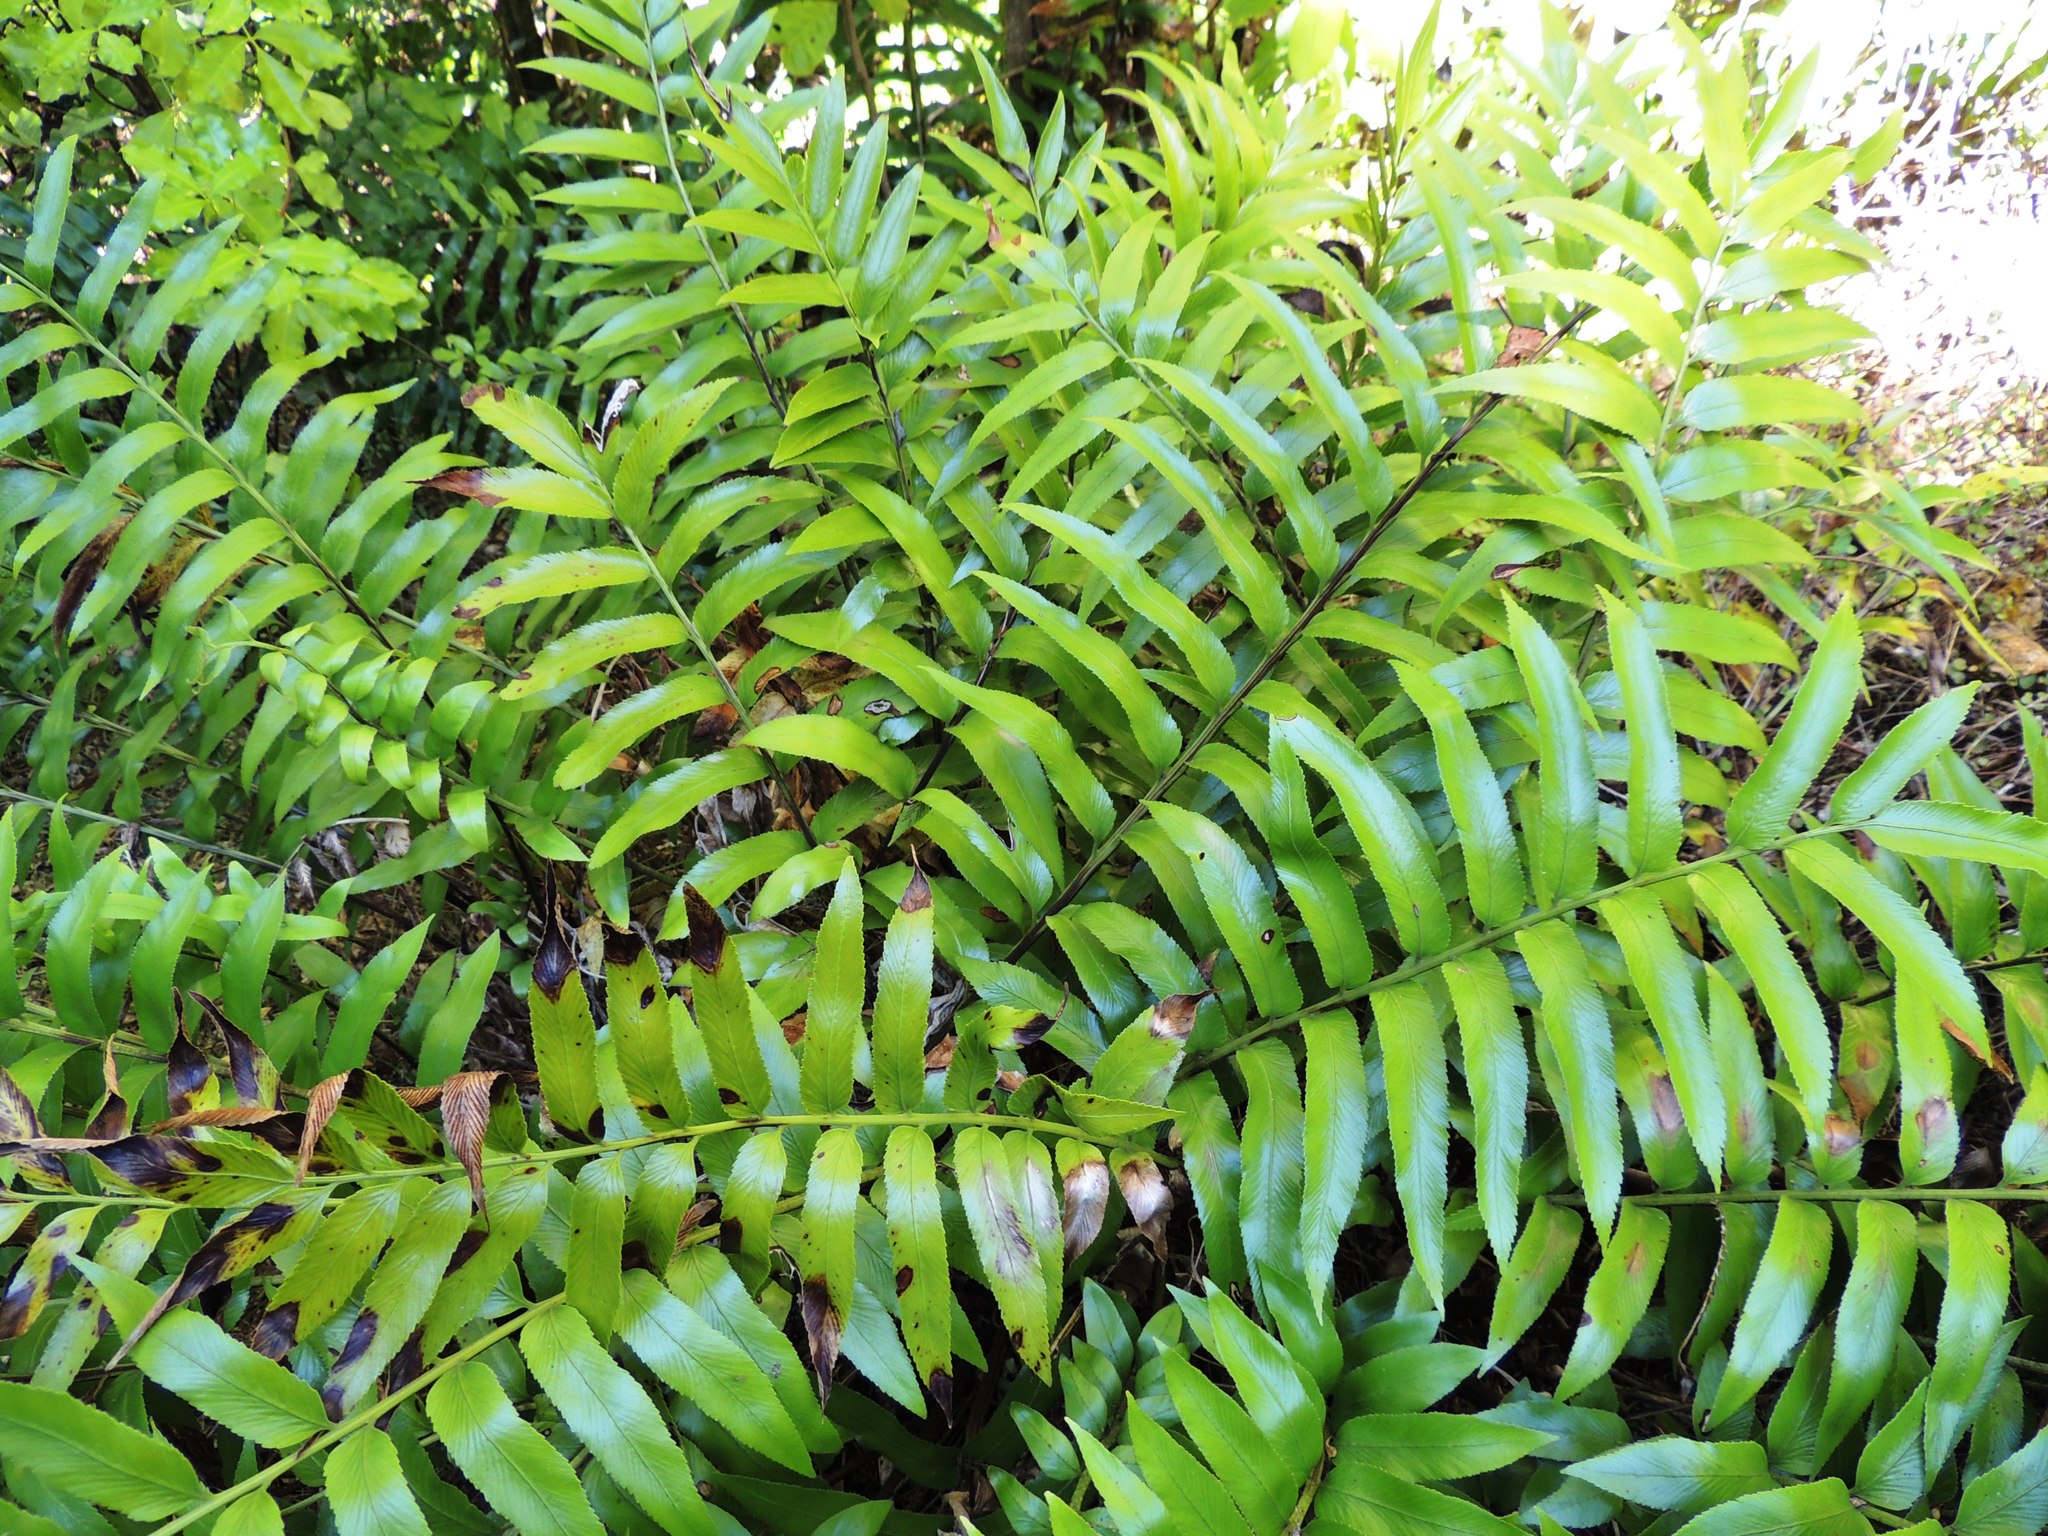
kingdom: Plantae
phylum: Tracheophyta
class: Polypodiopsida
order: Polypodiales
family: Aspleniaceae
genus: Asplenium
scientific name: Asplenium oblongifolium
